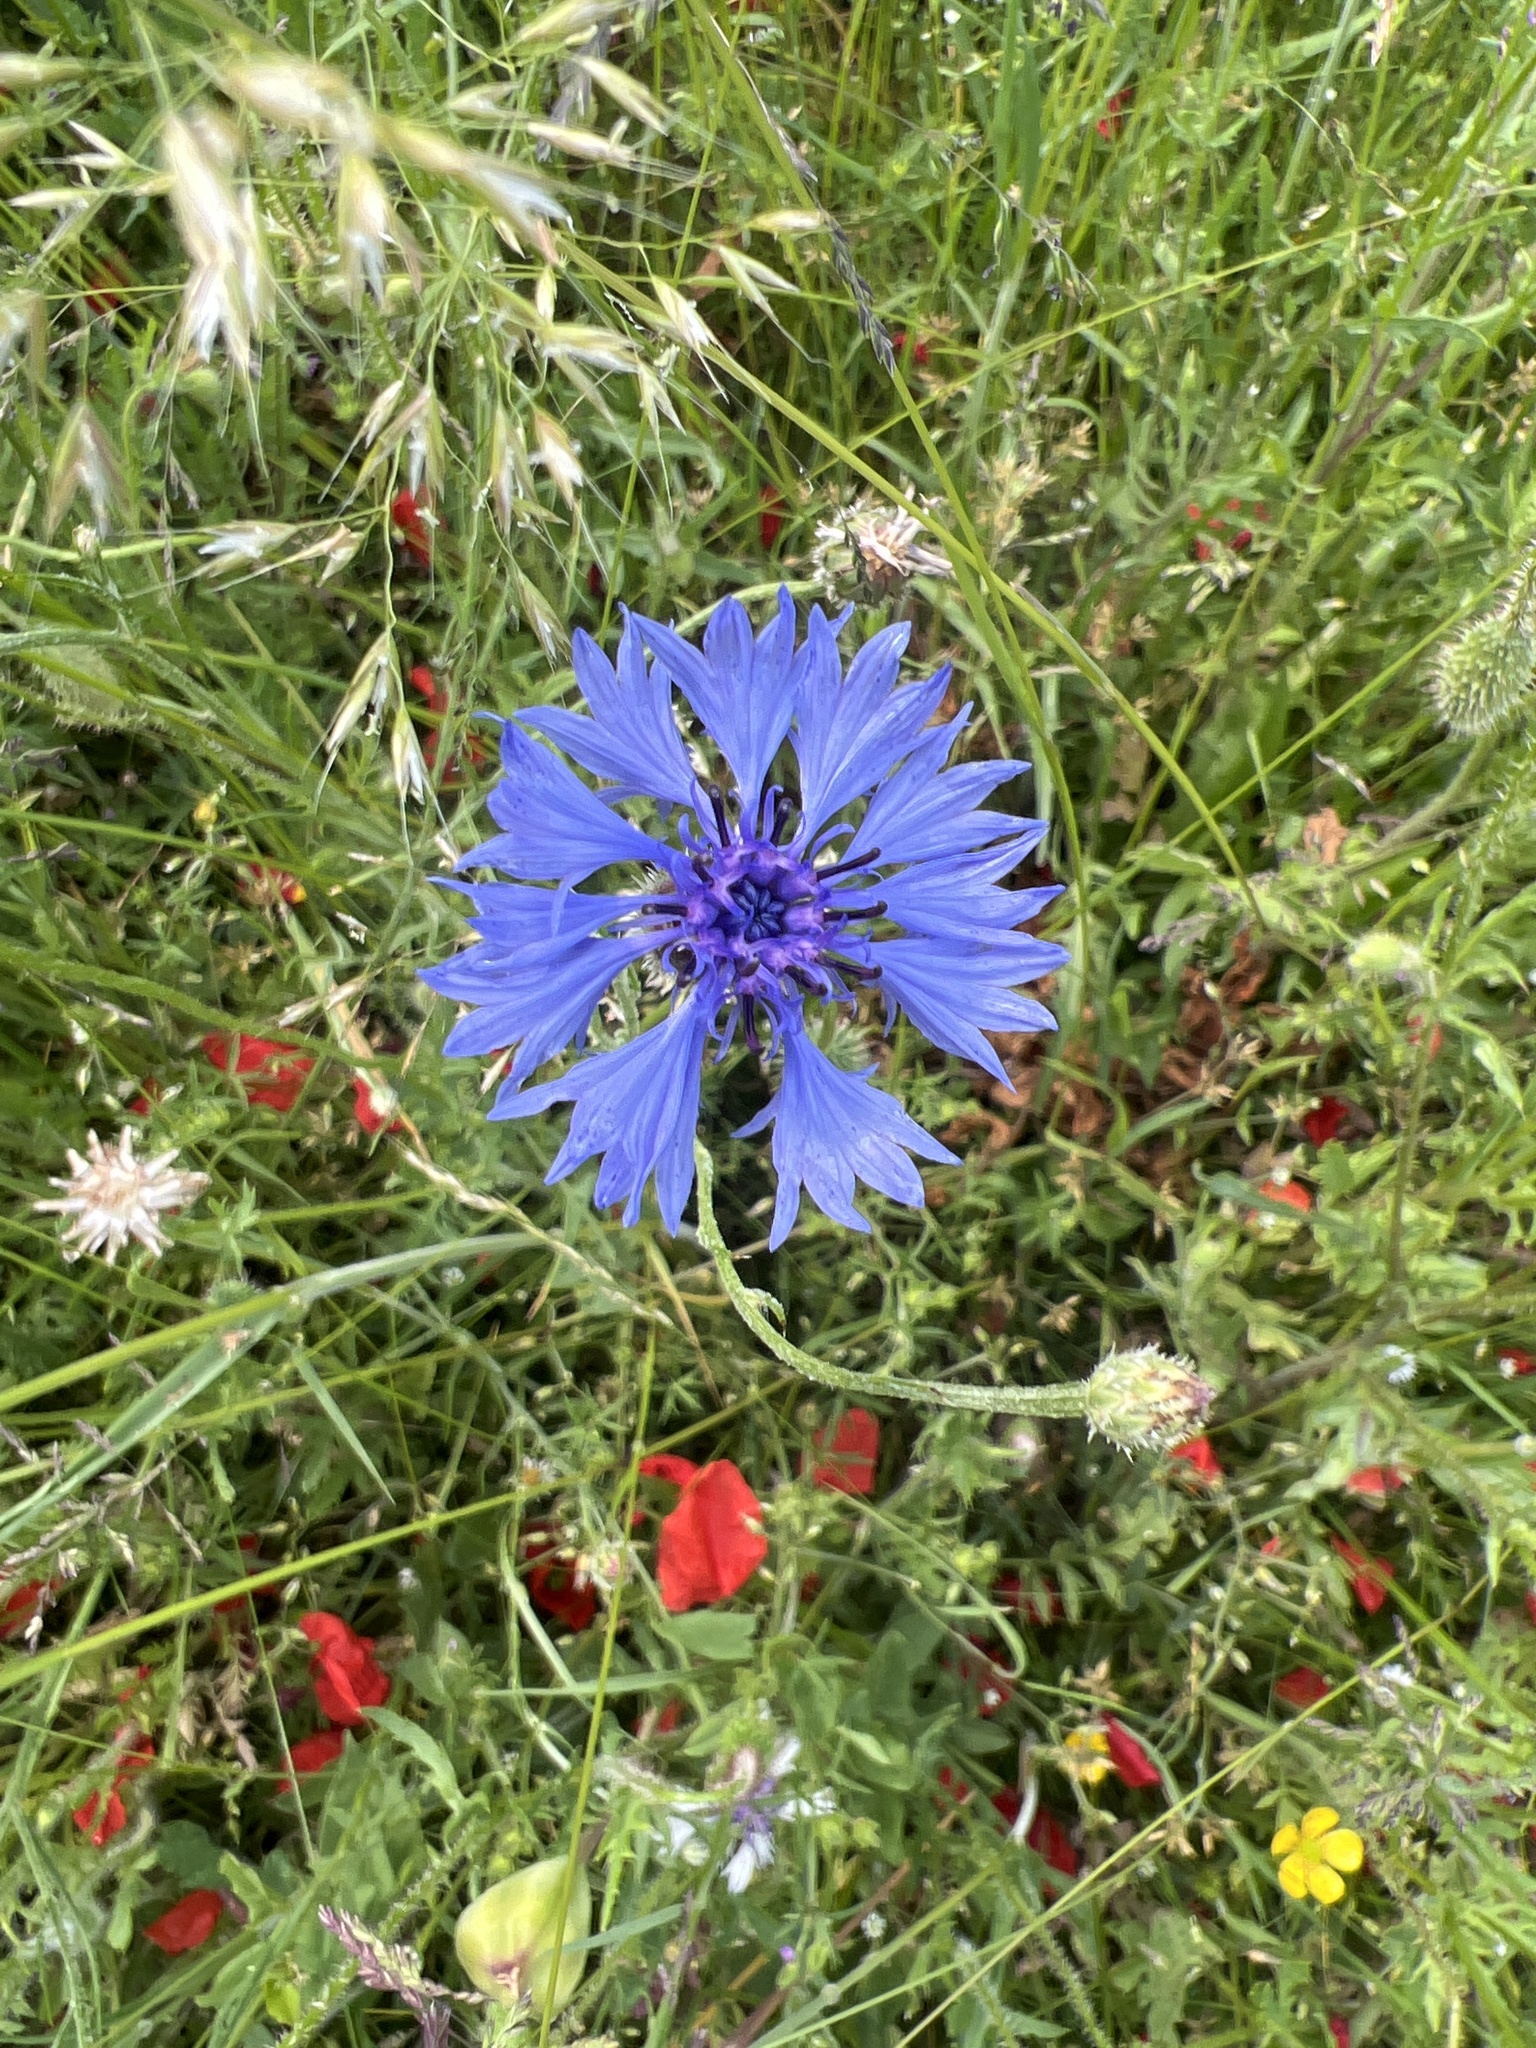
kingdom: Plantae
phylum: Tracheophyta
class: Magnoliopsida
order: Asterales
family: Asteraceae
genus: Centaurea
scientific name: Centaurea cyanus
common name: Cornflower
